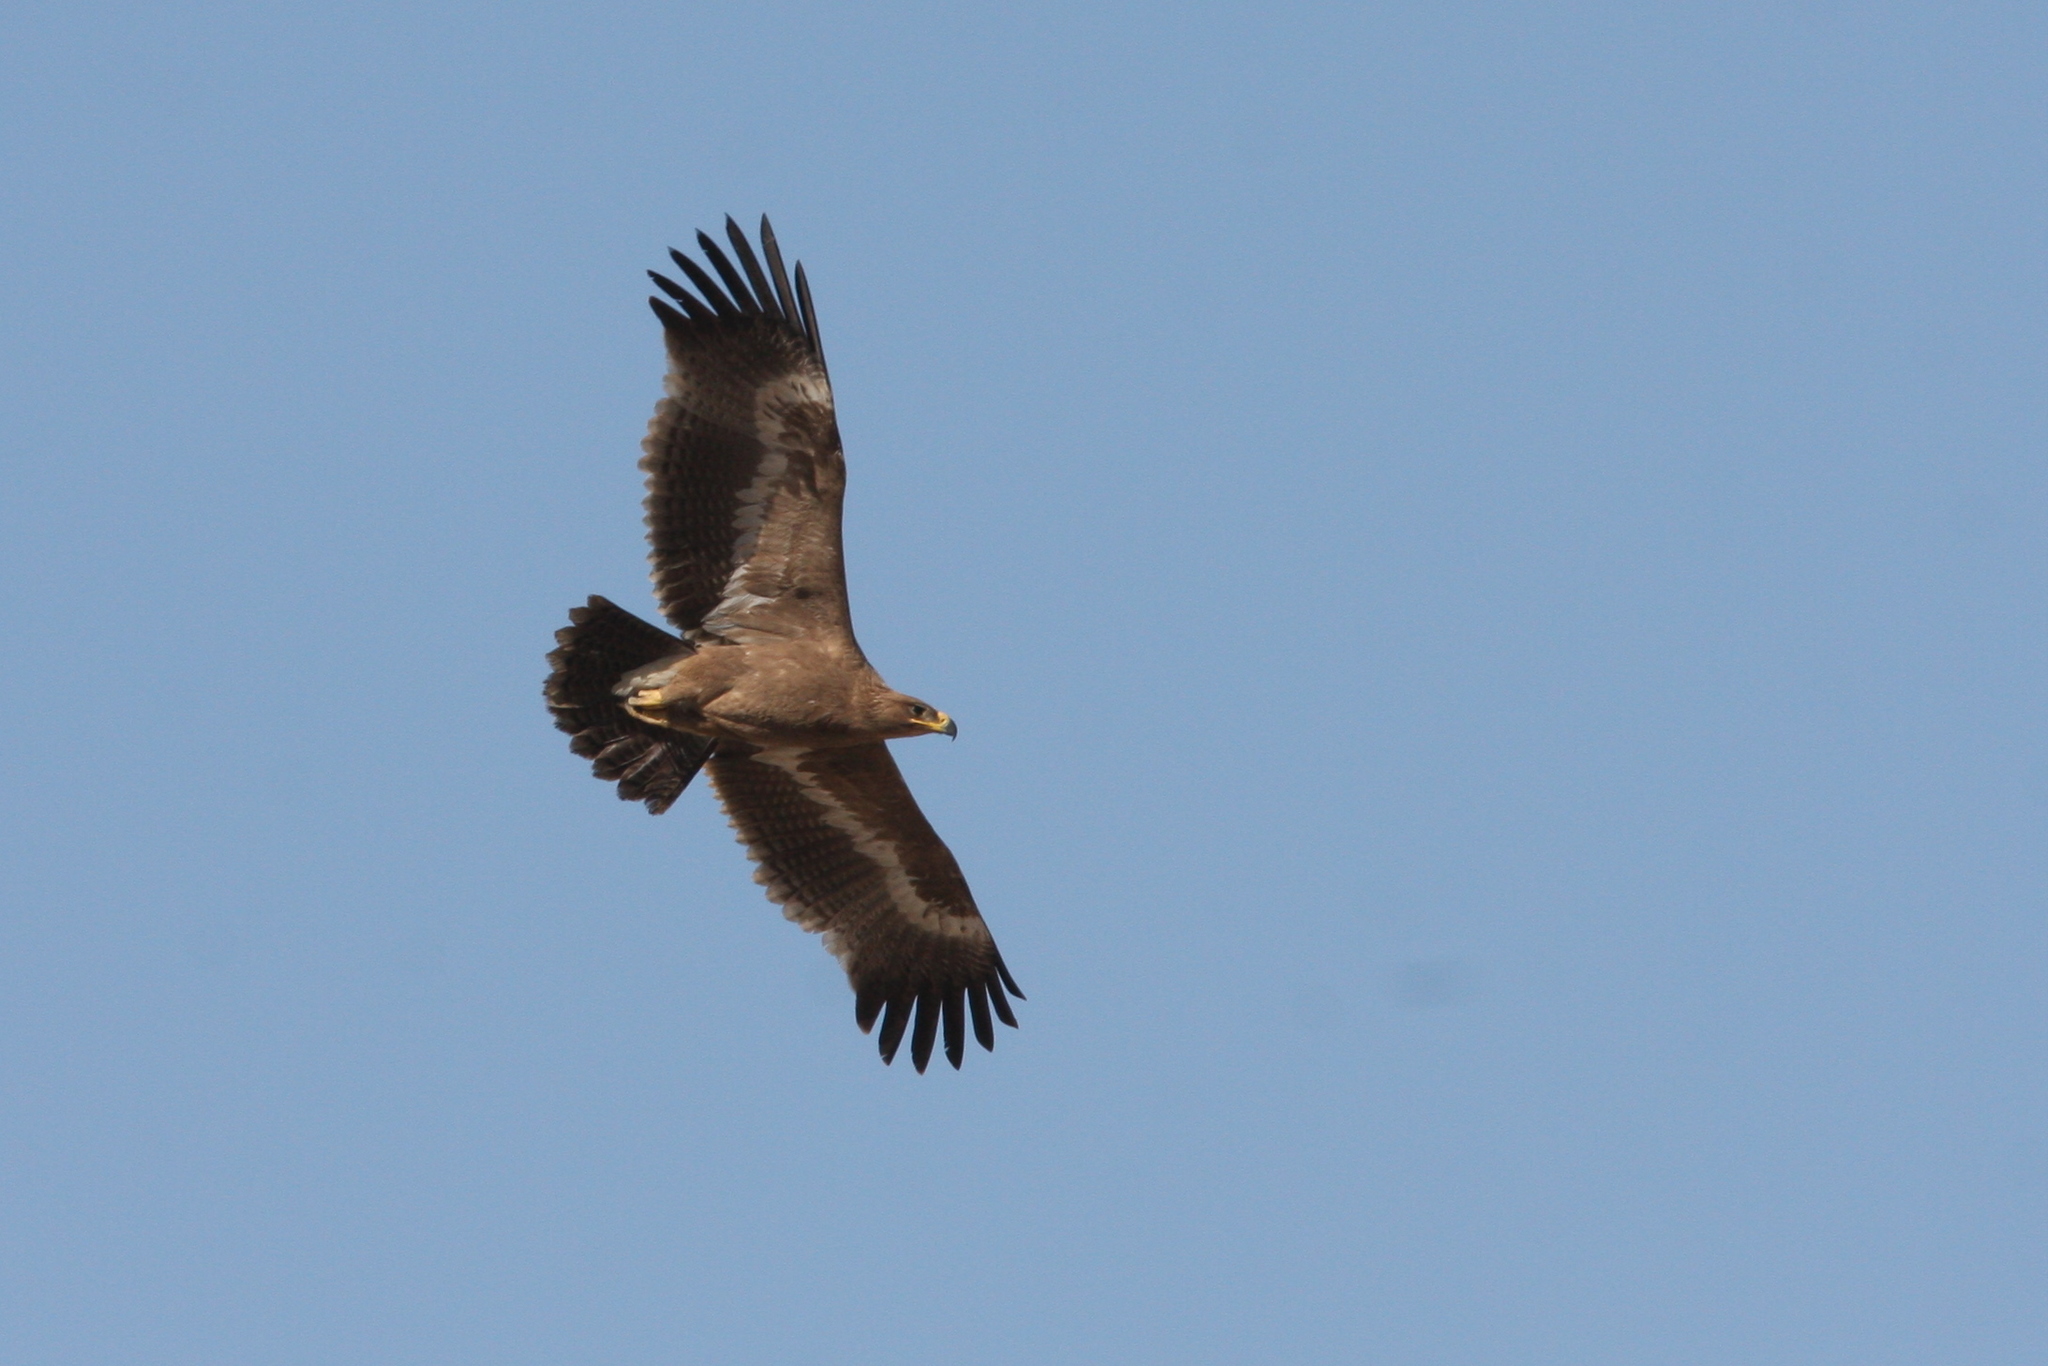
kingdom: Animalia
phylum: Chordata
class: Aves
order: Accipitriformes
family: Accipitridae
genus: Aquila
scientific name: Aquila nipalensis
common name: Steppe eagle
